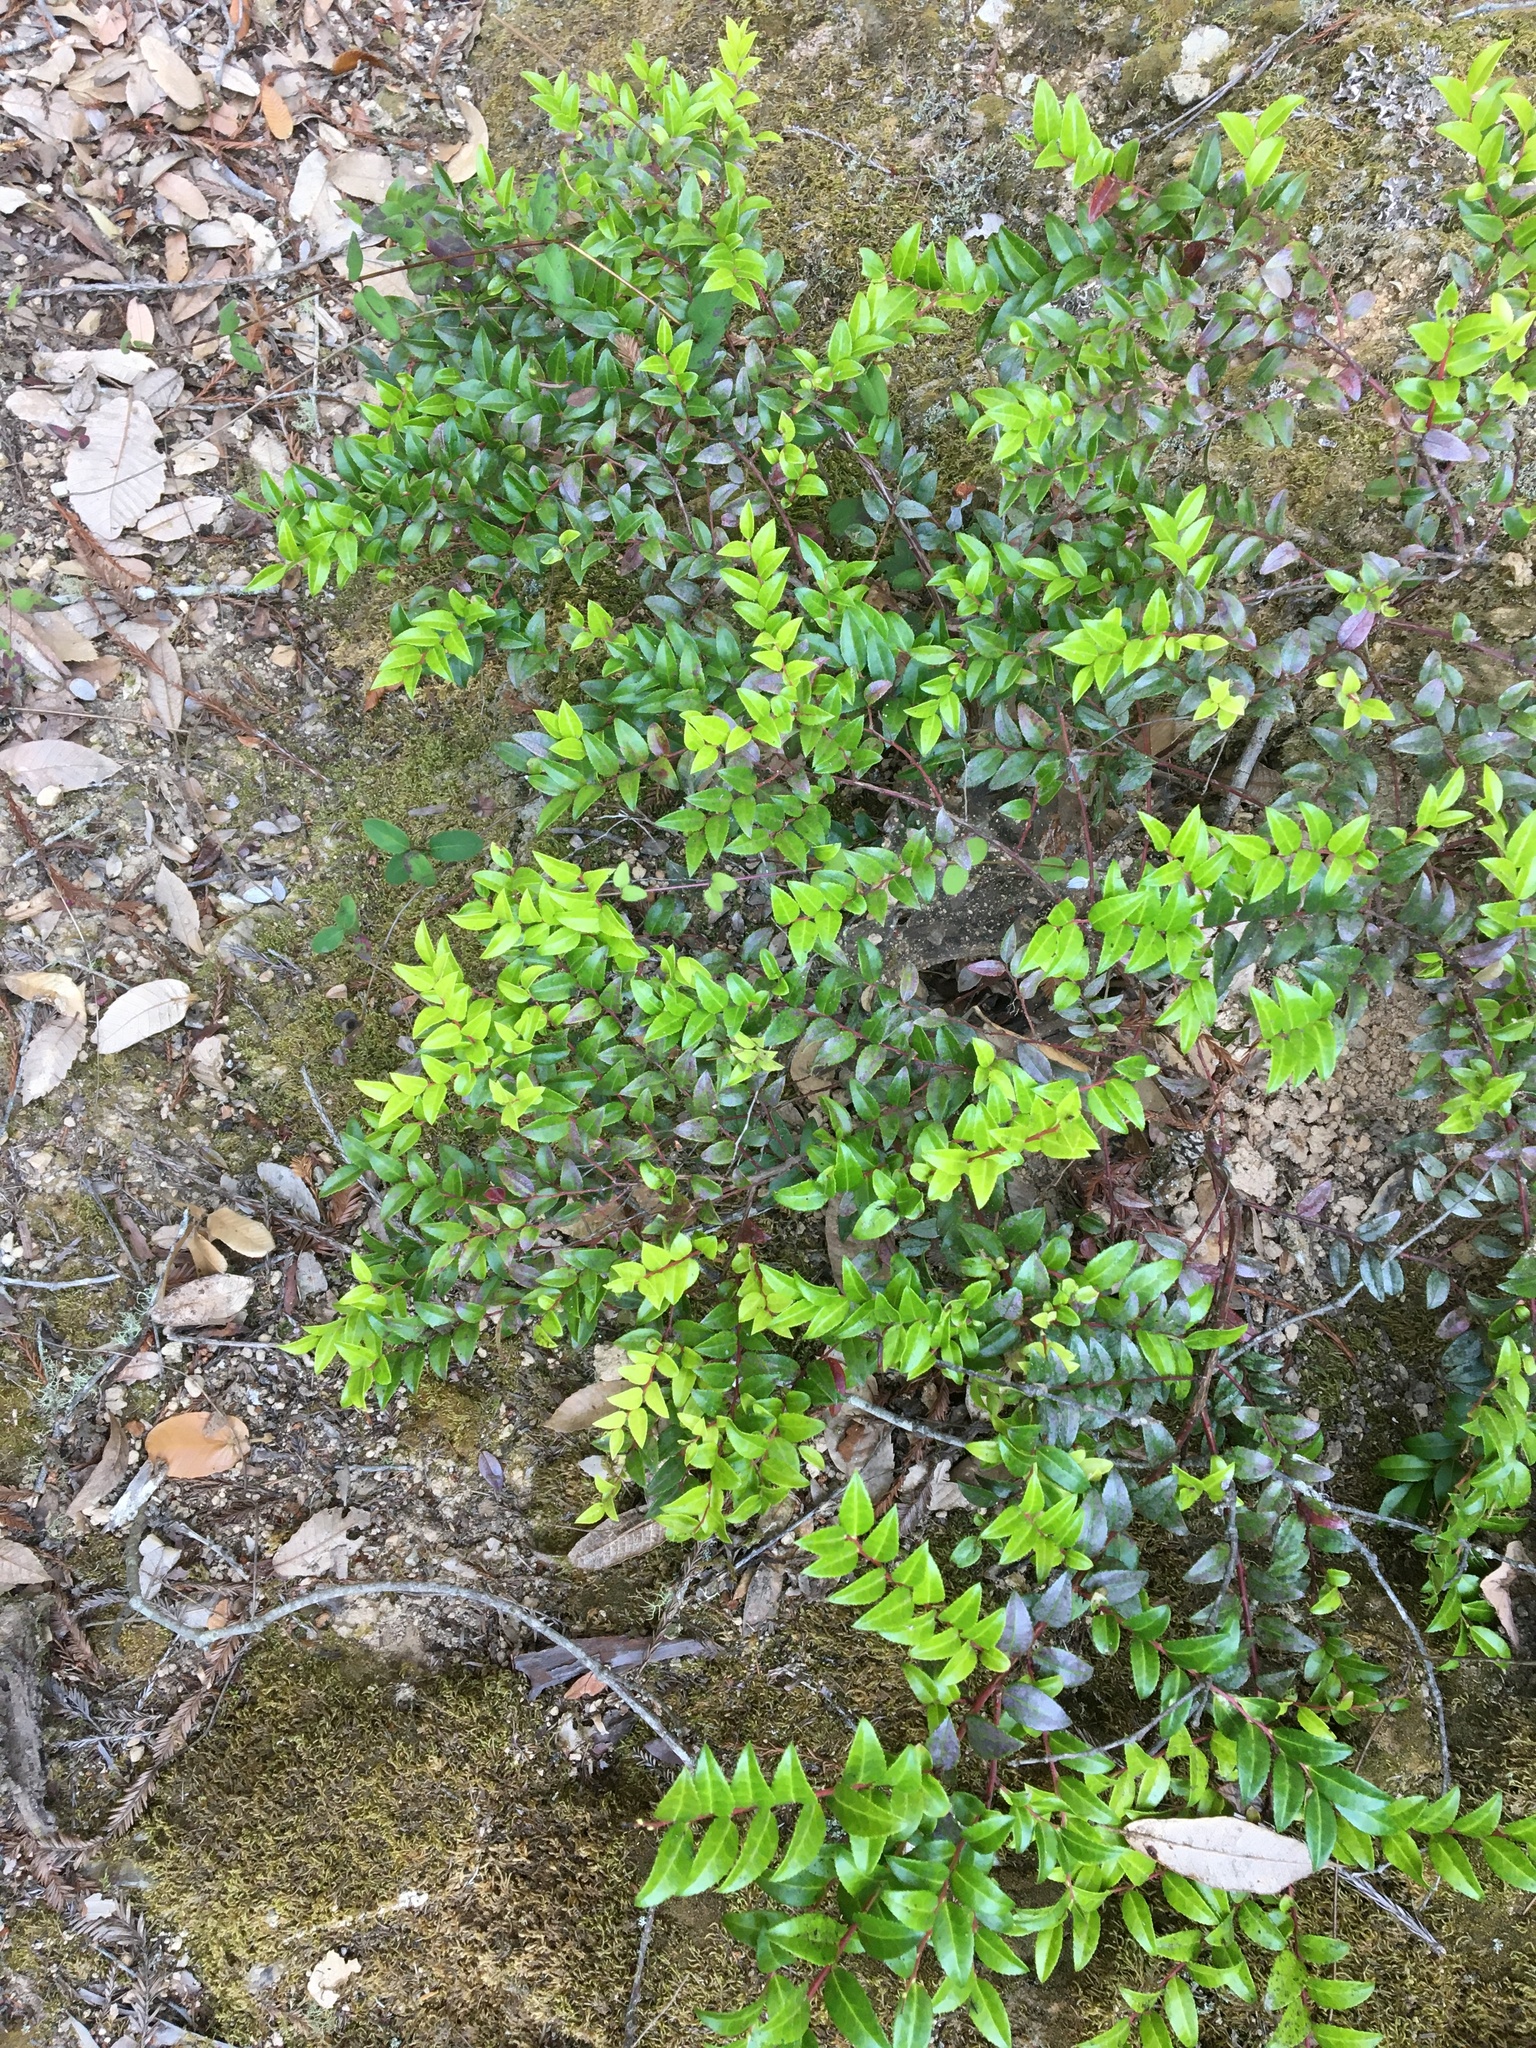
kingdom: Plantae
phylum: Tracheophyta
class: Magnoliopsida
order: Ericales
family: Ericaceae
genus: Vaccinium
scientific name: Vaccinium ovatum
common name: California-huckleberry
